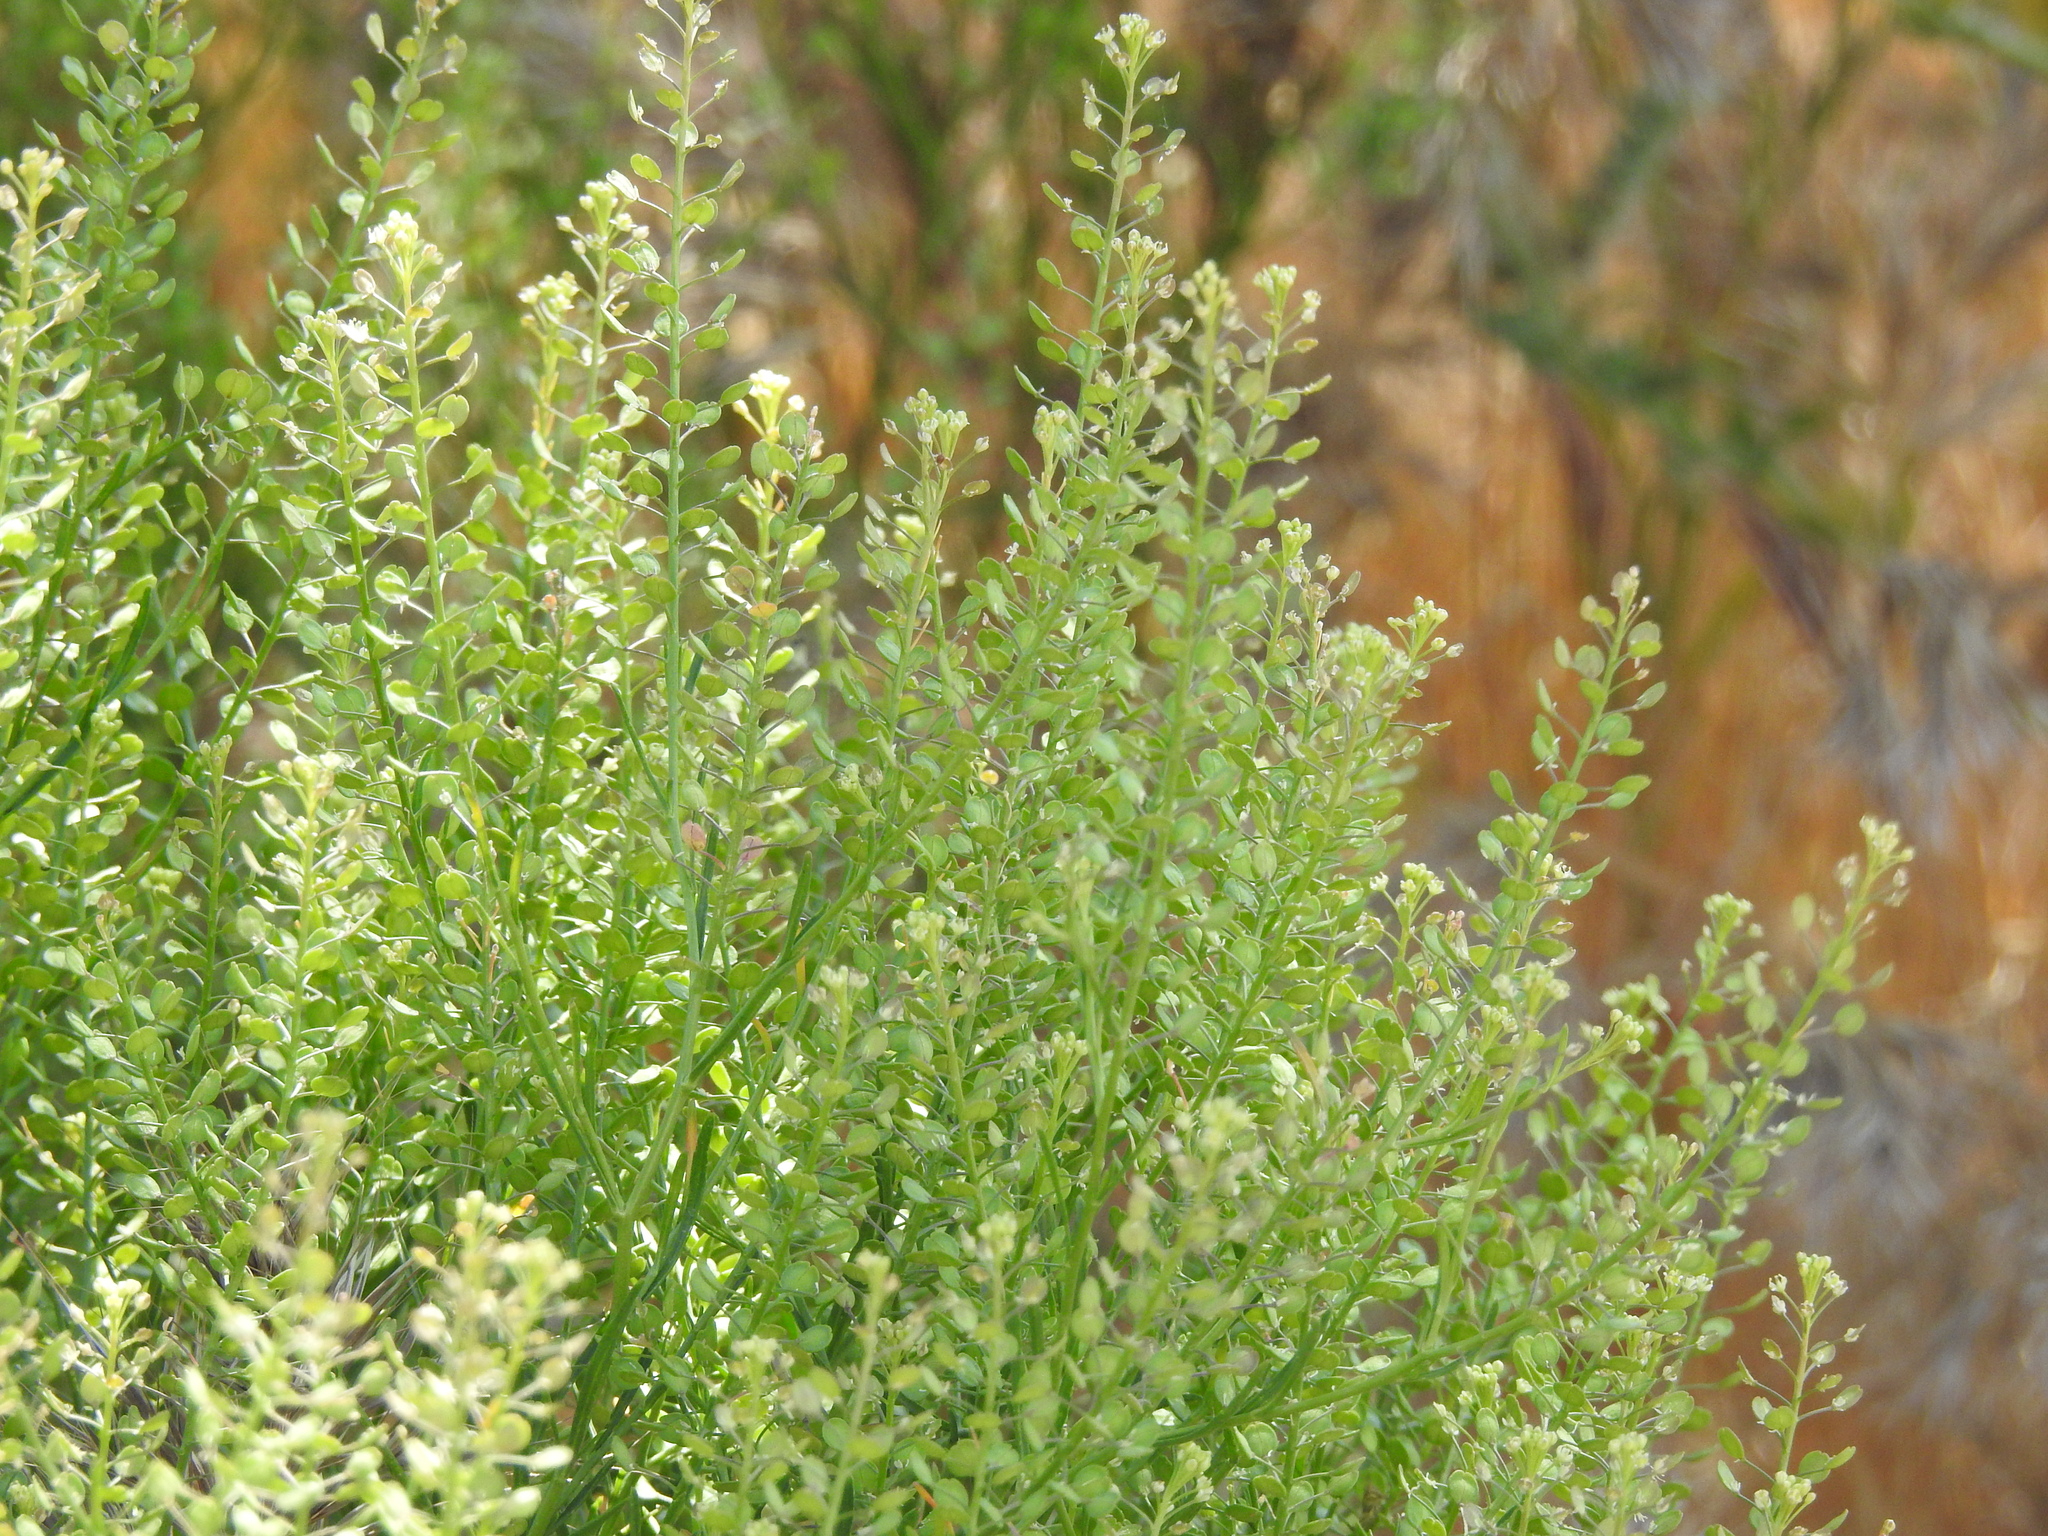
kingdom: Plantae
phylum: Tracheophyta
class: Magnoliopsida
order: Brassicales
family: Brassicaceae
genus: Lepidium
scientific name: Lepidium lasiocarpum
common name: Hairy-pod pepperwort
